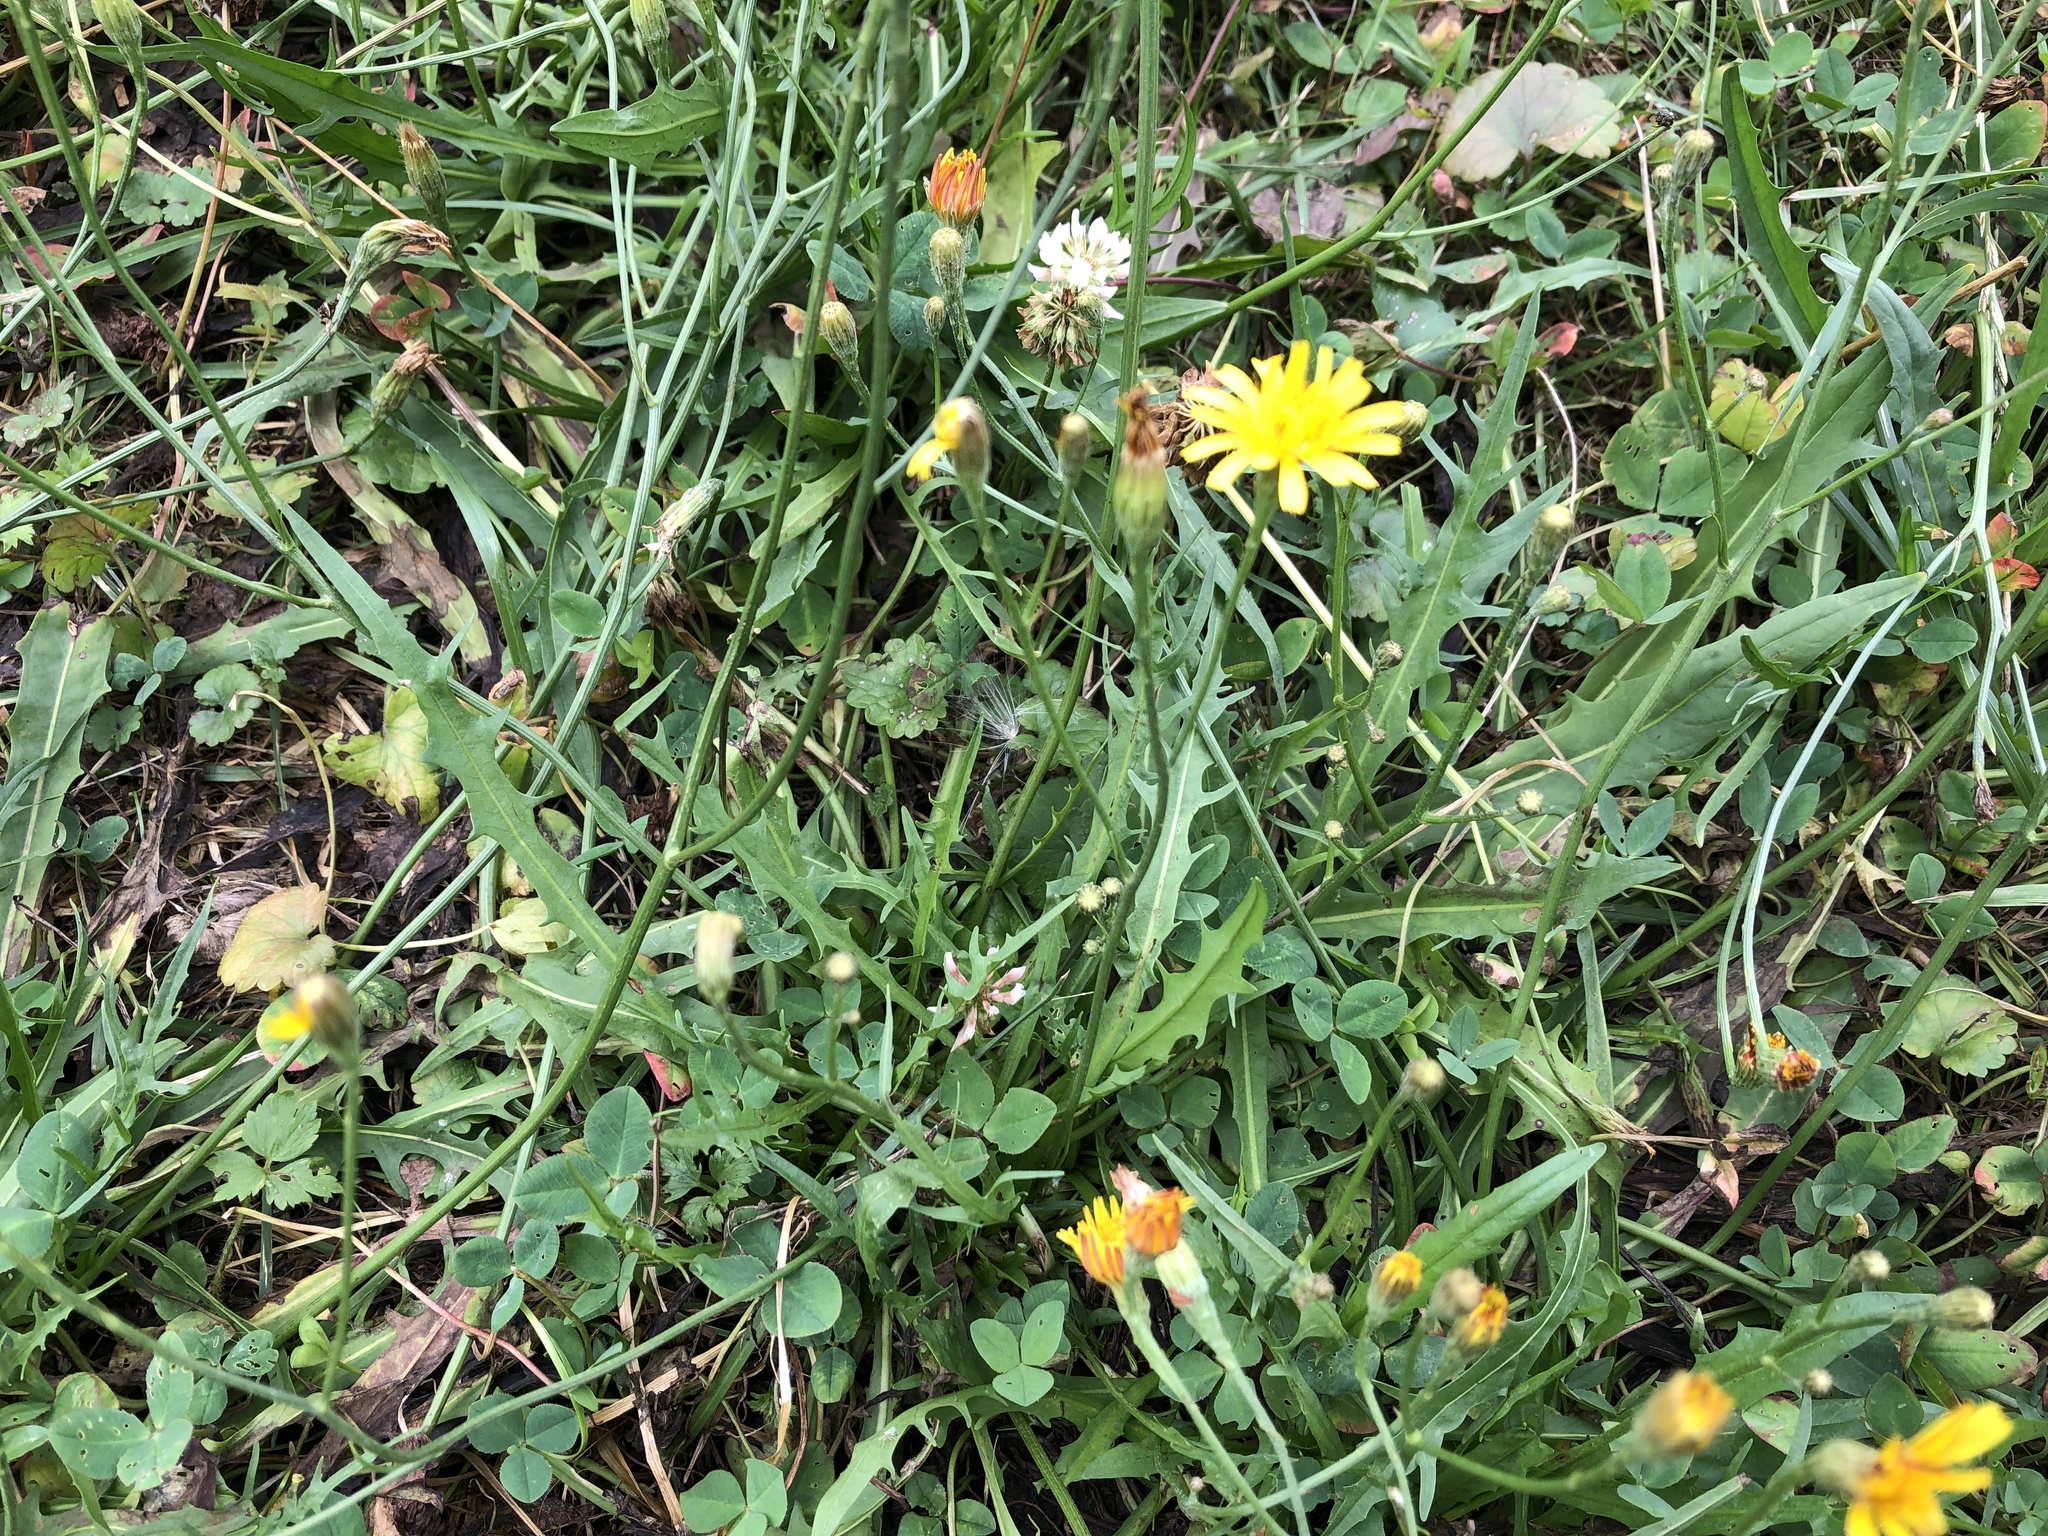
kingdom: Plantae
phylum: Tracheophyta
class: Magnoliopsida
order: Asterales
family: Asteraceae
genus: Scorzoneroides
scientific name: Scorzoneroides autumnalis
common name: Autumn hawkbit
